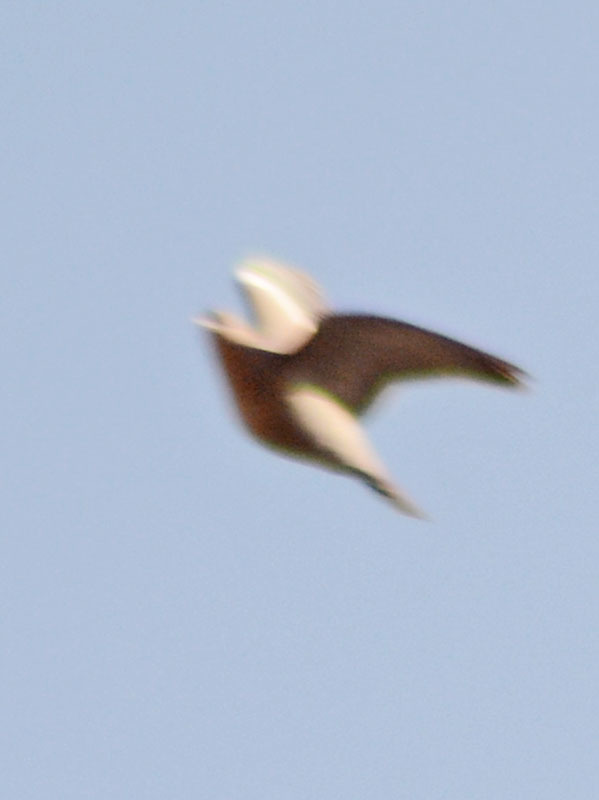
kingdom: Animalia
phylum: Chordata
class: Aves
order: Columbiformes
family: Columbidae
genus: Zenaida
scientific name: Zenaida asiatica
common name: White-winged dove
